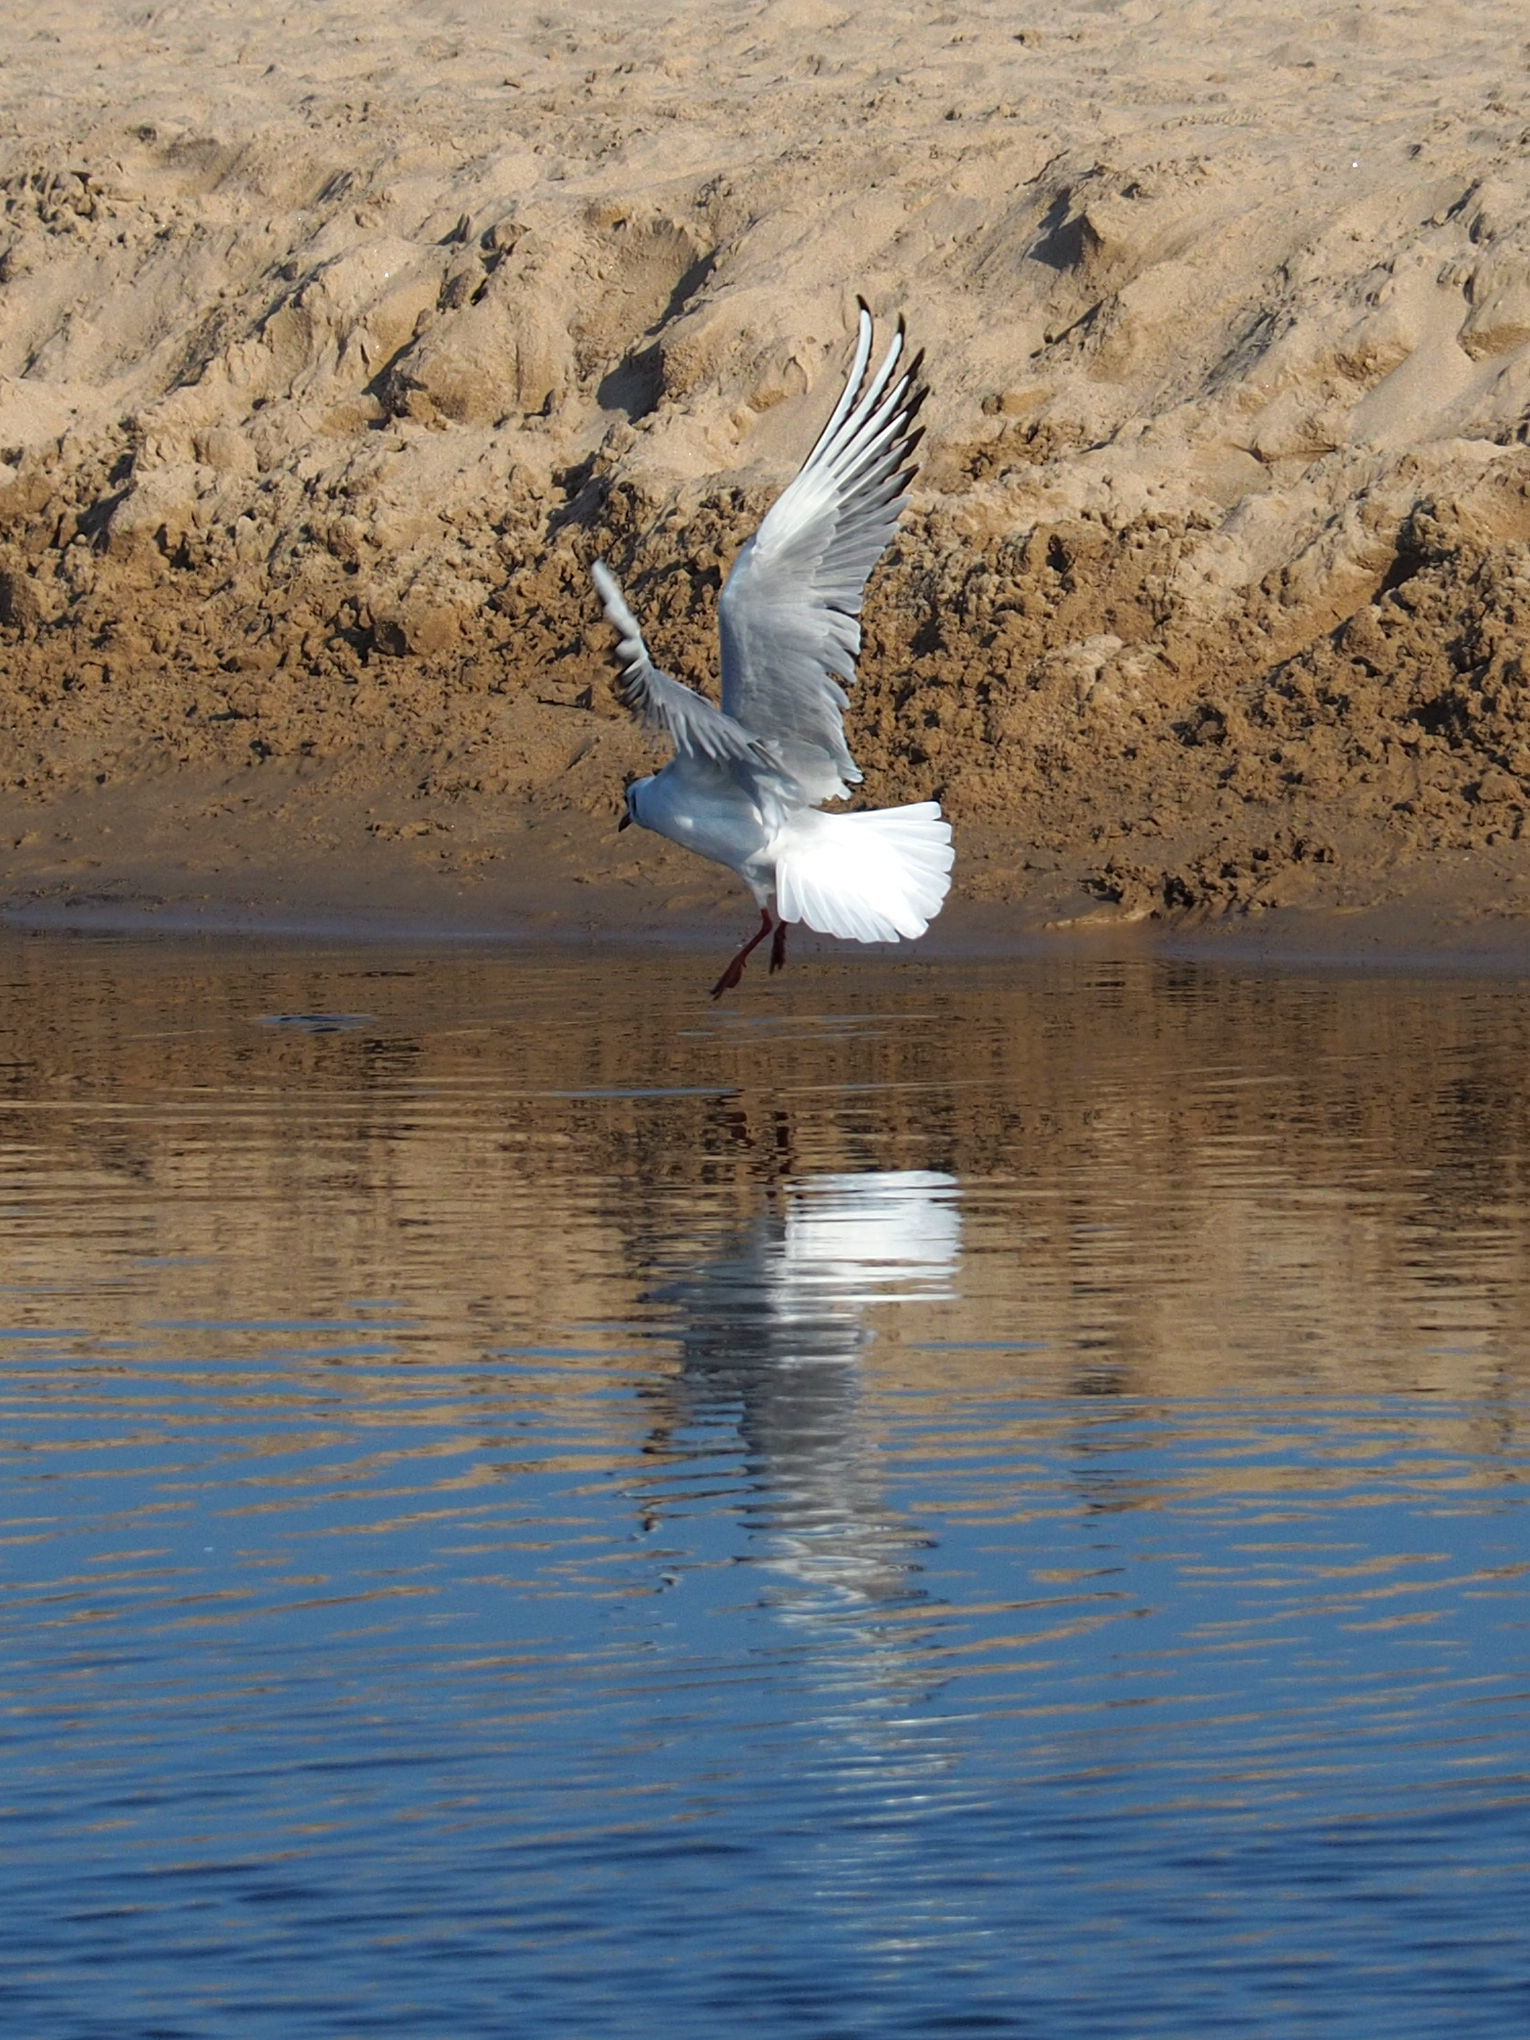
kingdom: Animalia
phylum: Chordata
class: Aves
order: Charadriiformes
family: Laridae
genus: Chroicocephalus
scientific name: Chroicocephalus ridibundus
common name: Black-headed gull
